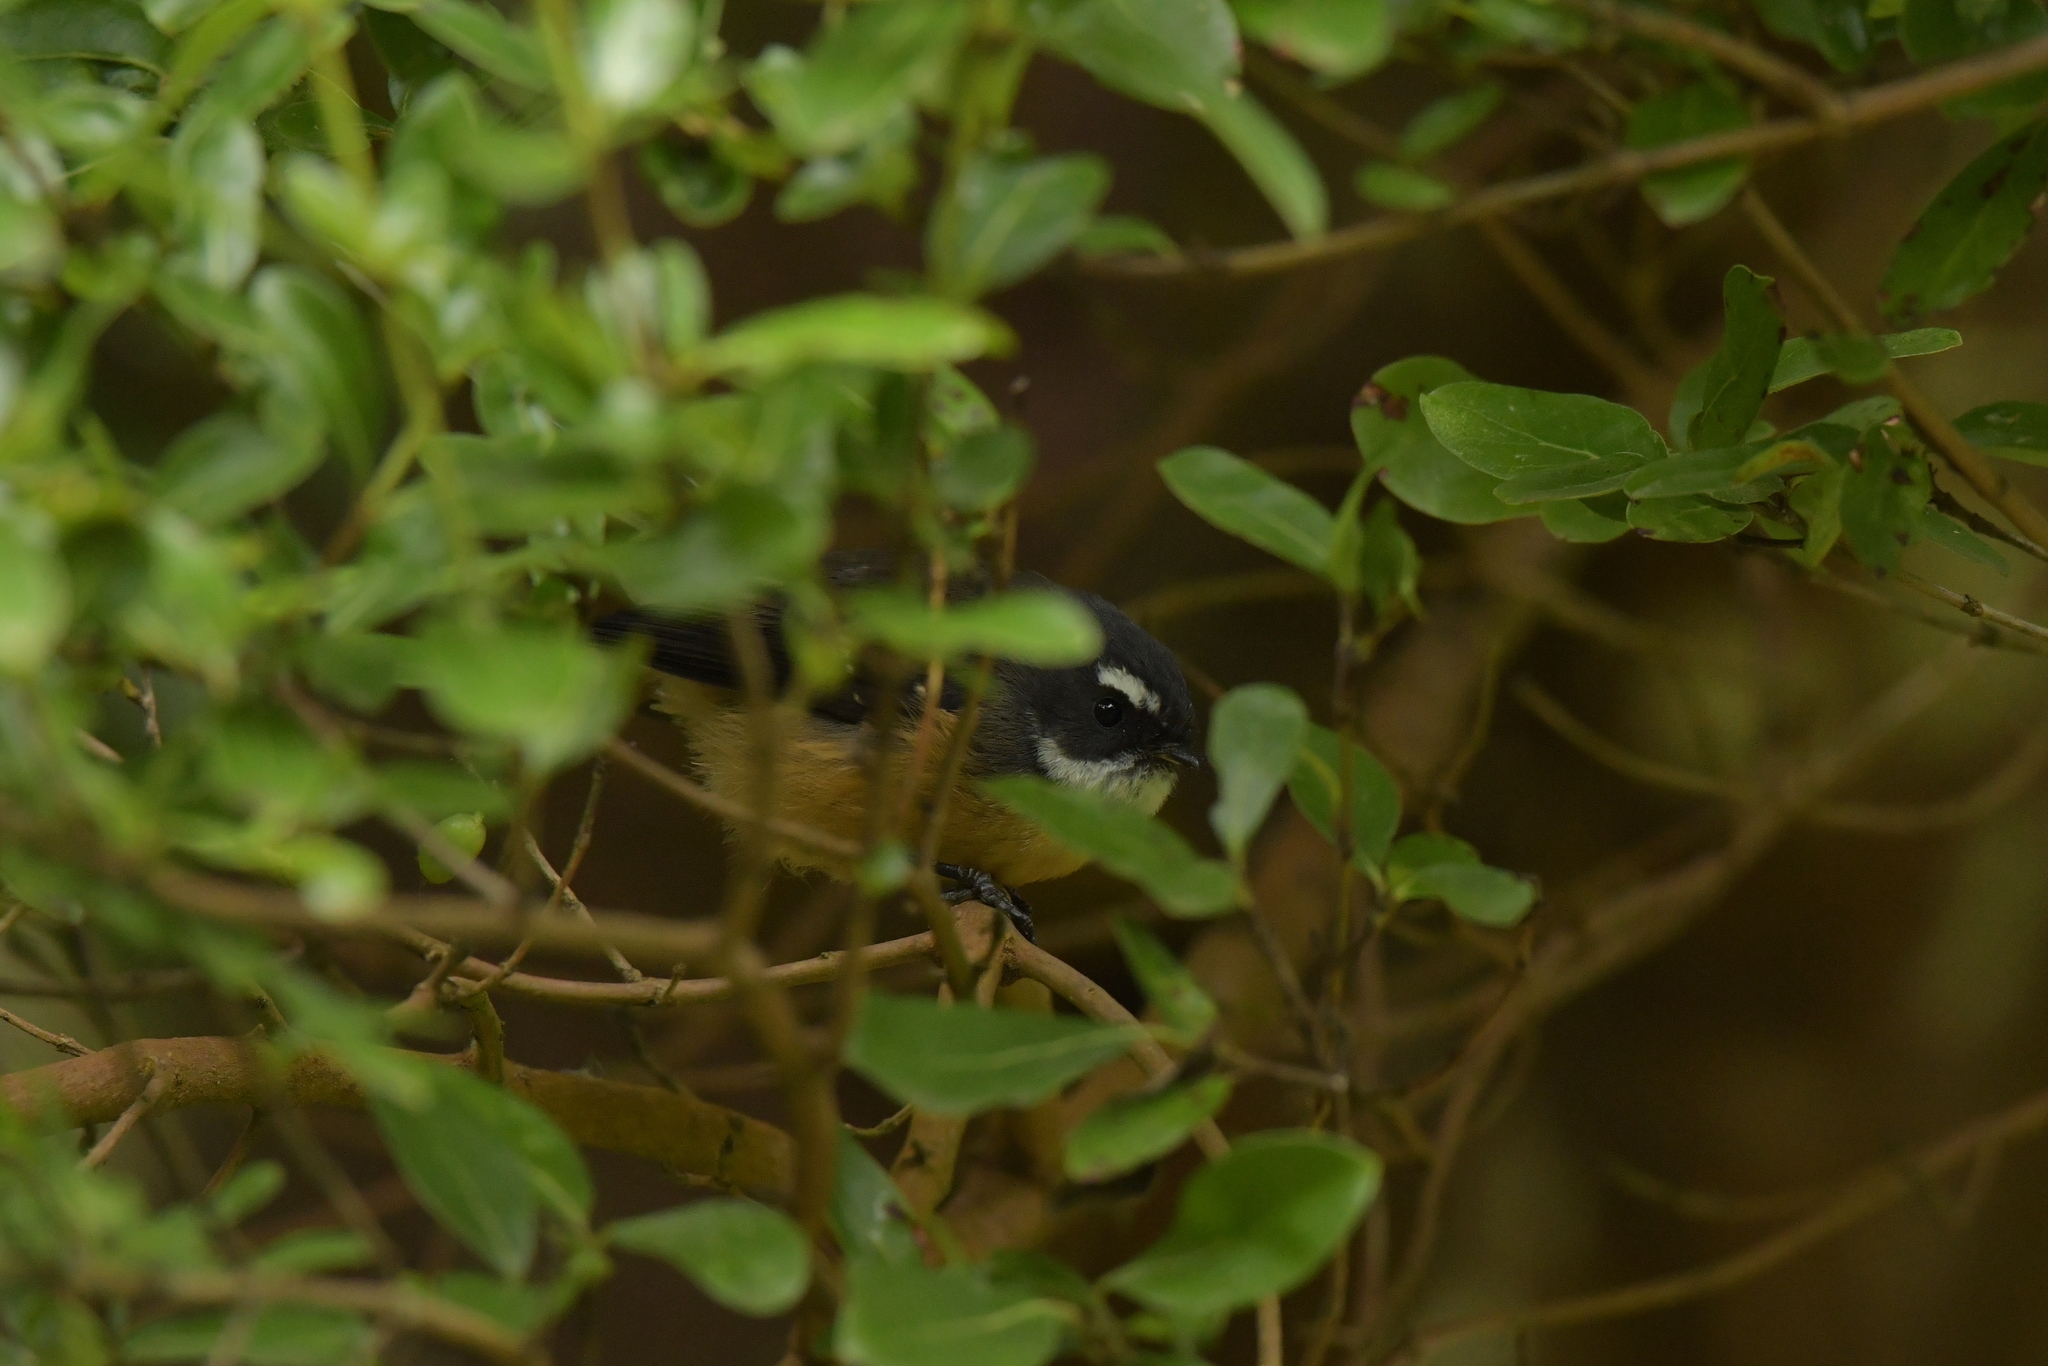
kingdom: Animalia
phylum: Chordata
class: Aves
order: Passeriformes
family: Rhipiduridae
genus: Rhipidura
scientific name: Rhipidura fuliginosa
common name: New zealand fantail
